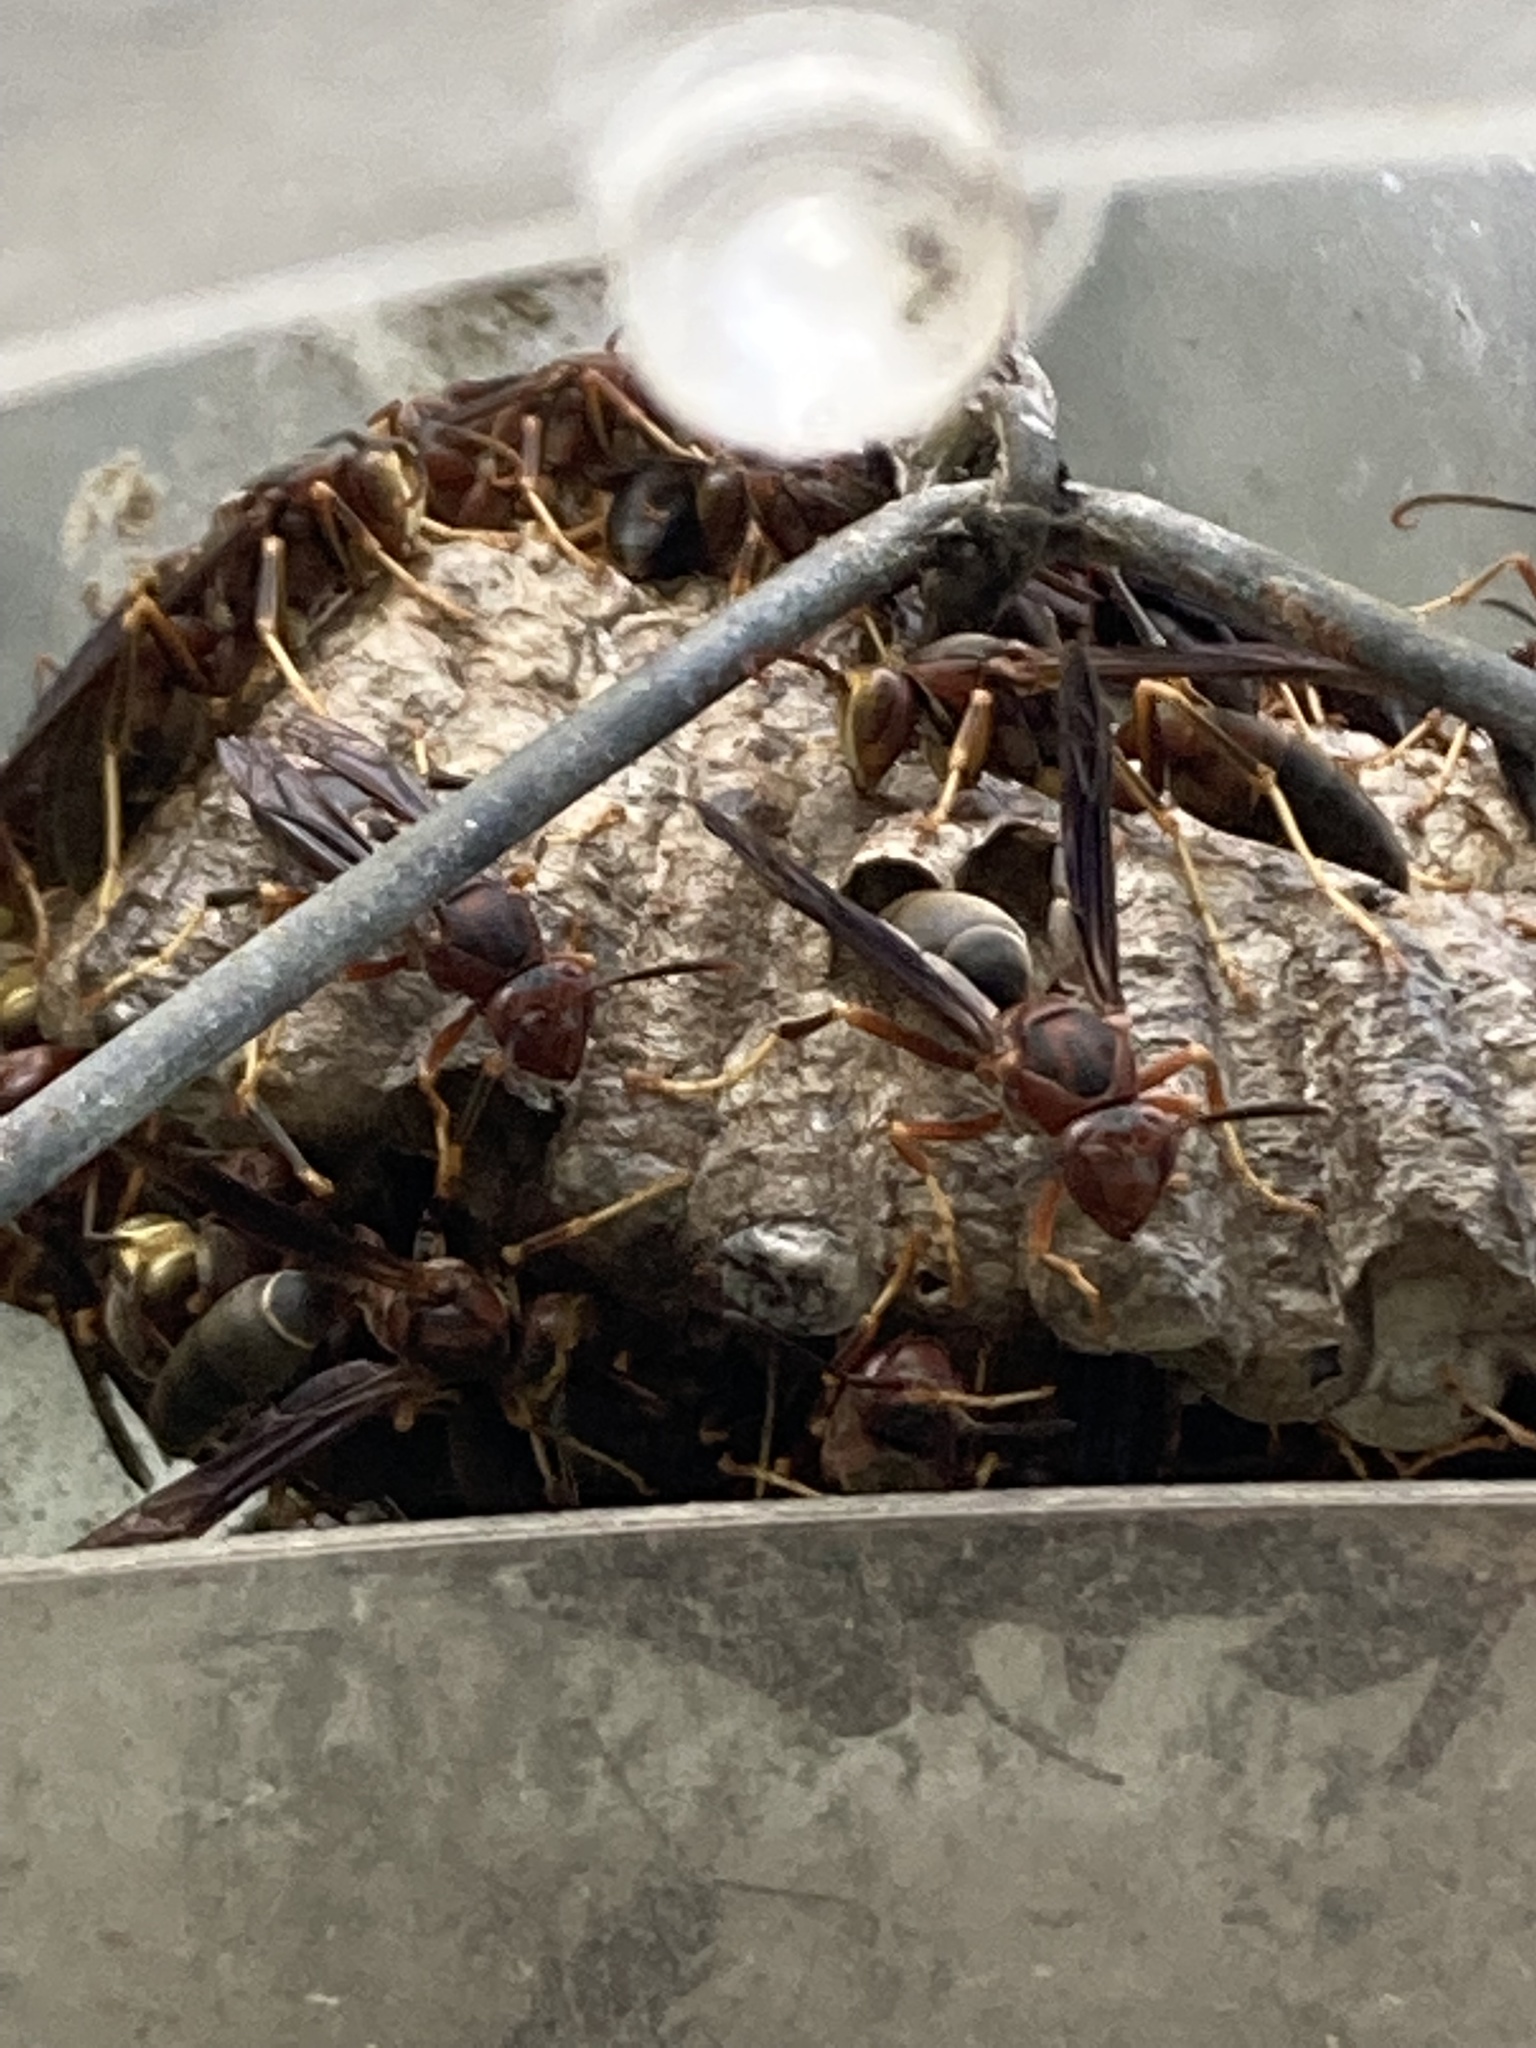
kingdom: Animalia
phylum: Arthropoda
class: Insecta
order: Hymenoptera
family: Eumenidae
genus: Polistes
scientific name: Polistes metricus
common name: Metric paper wasp
